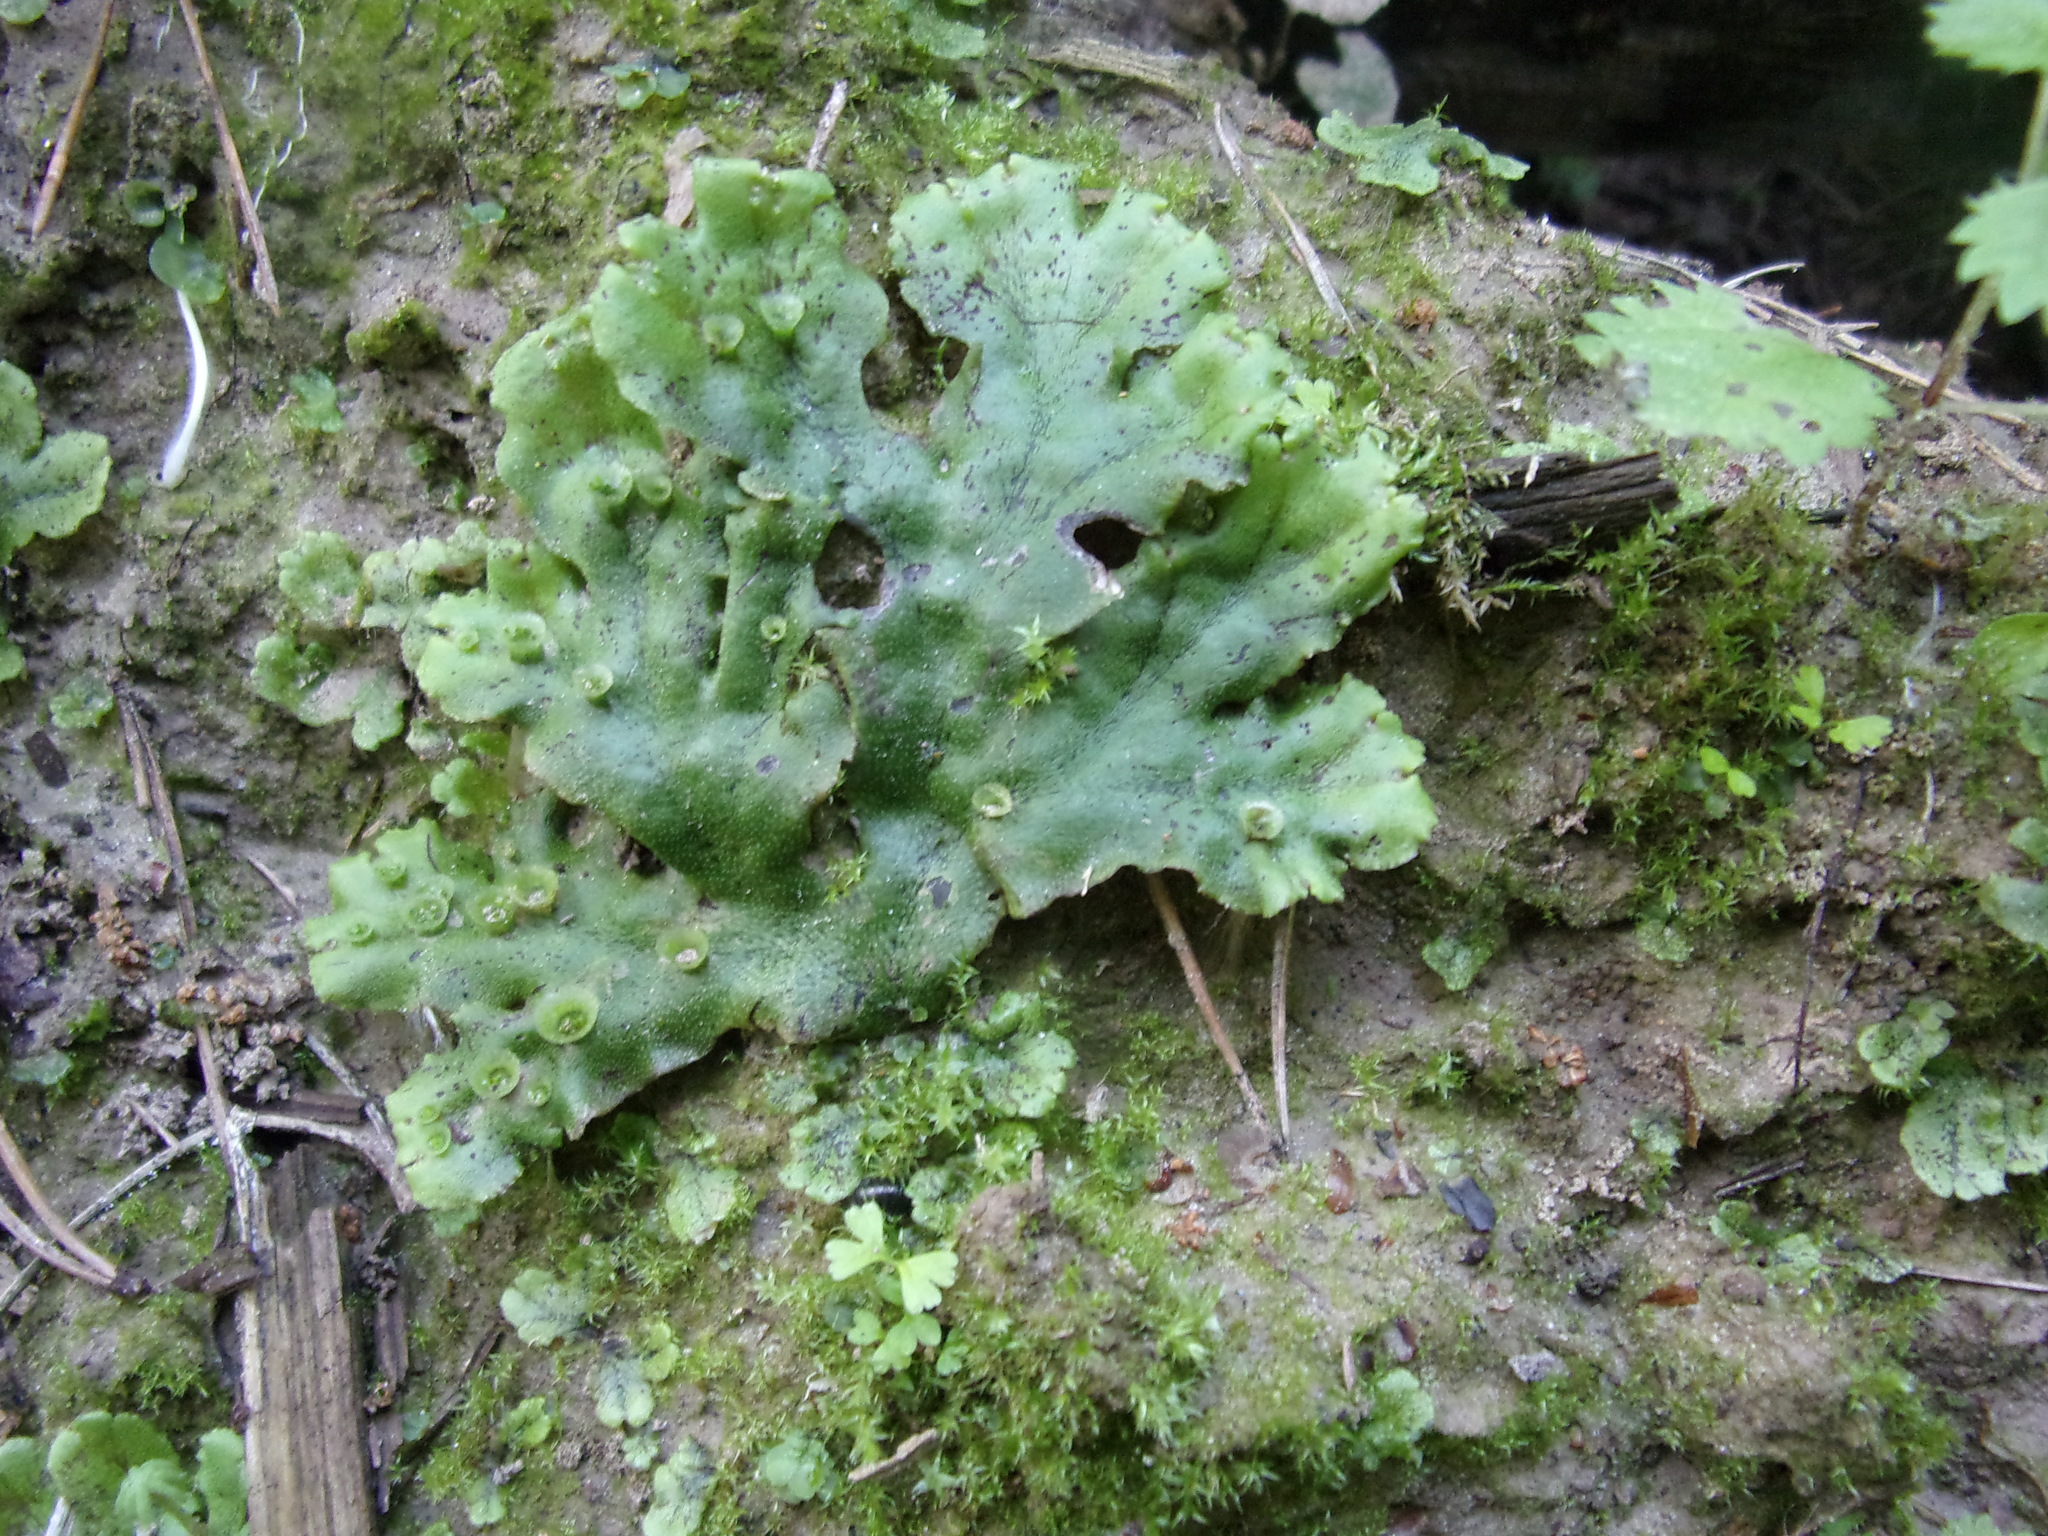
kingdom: Plantae
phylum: Marchantiophyta
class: Marchantiopsida
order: Marchantiales
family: Marchantiaceae
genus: Marchantia
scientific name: Marchantia polymorpha
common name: Common liverwort
